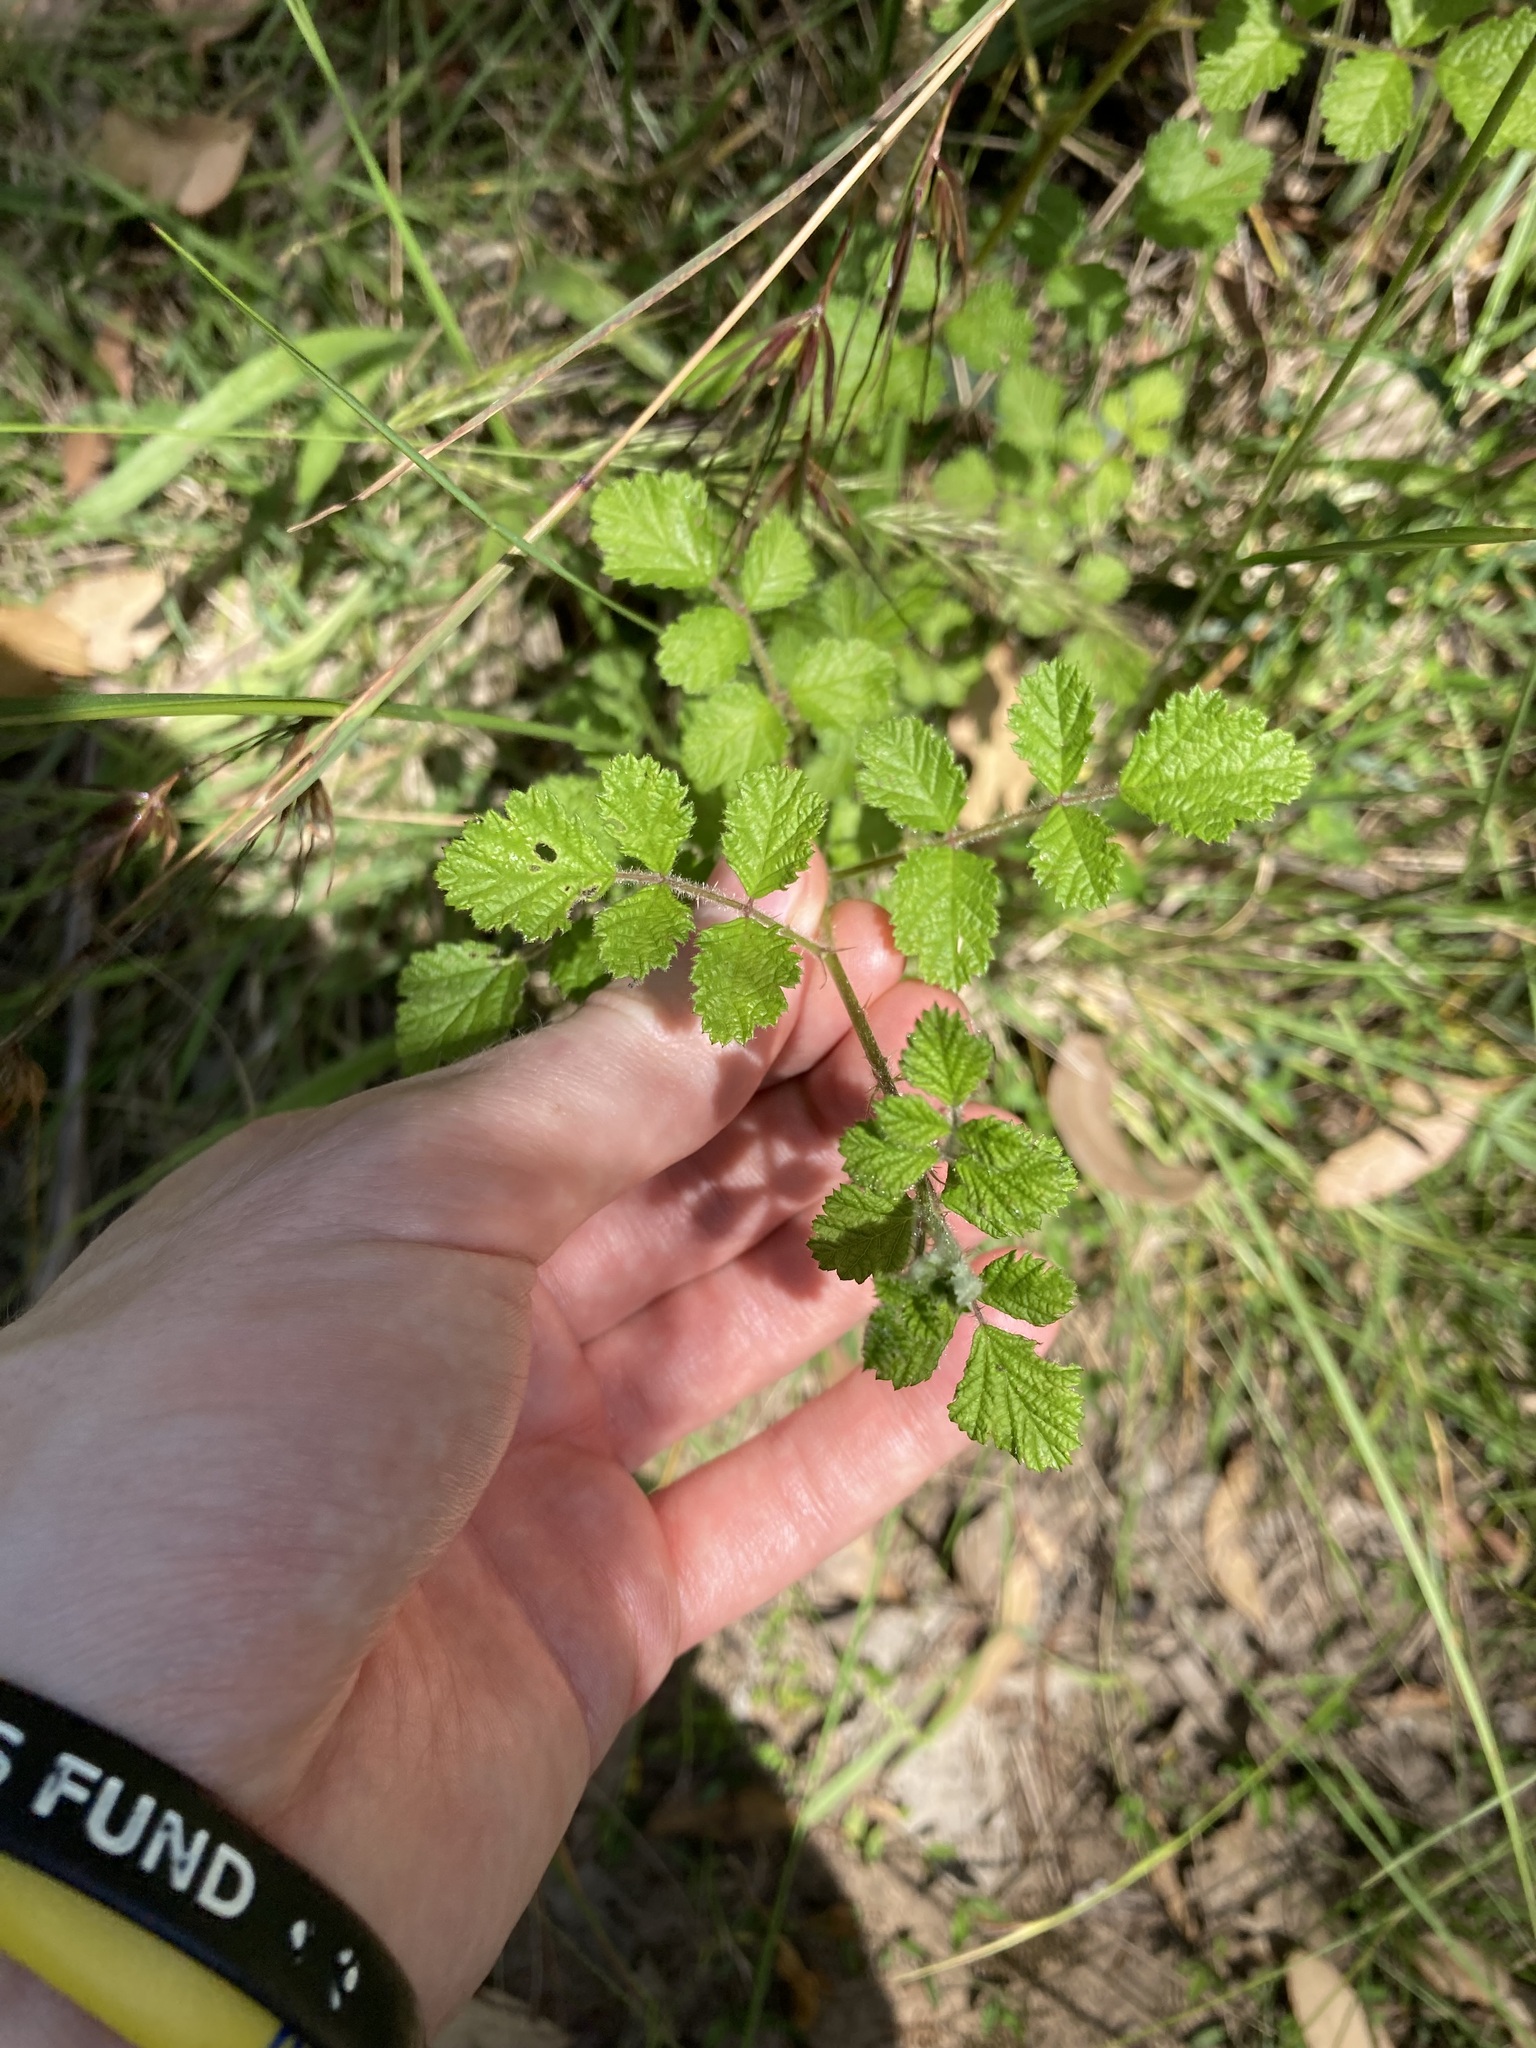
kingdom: Plantae
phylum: Tracheophyta
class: Magnoliopsida
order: Rosales
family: Rosaceae
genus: Rubus
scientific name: Rubus parvifolius
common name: Threeleaf blackberry
